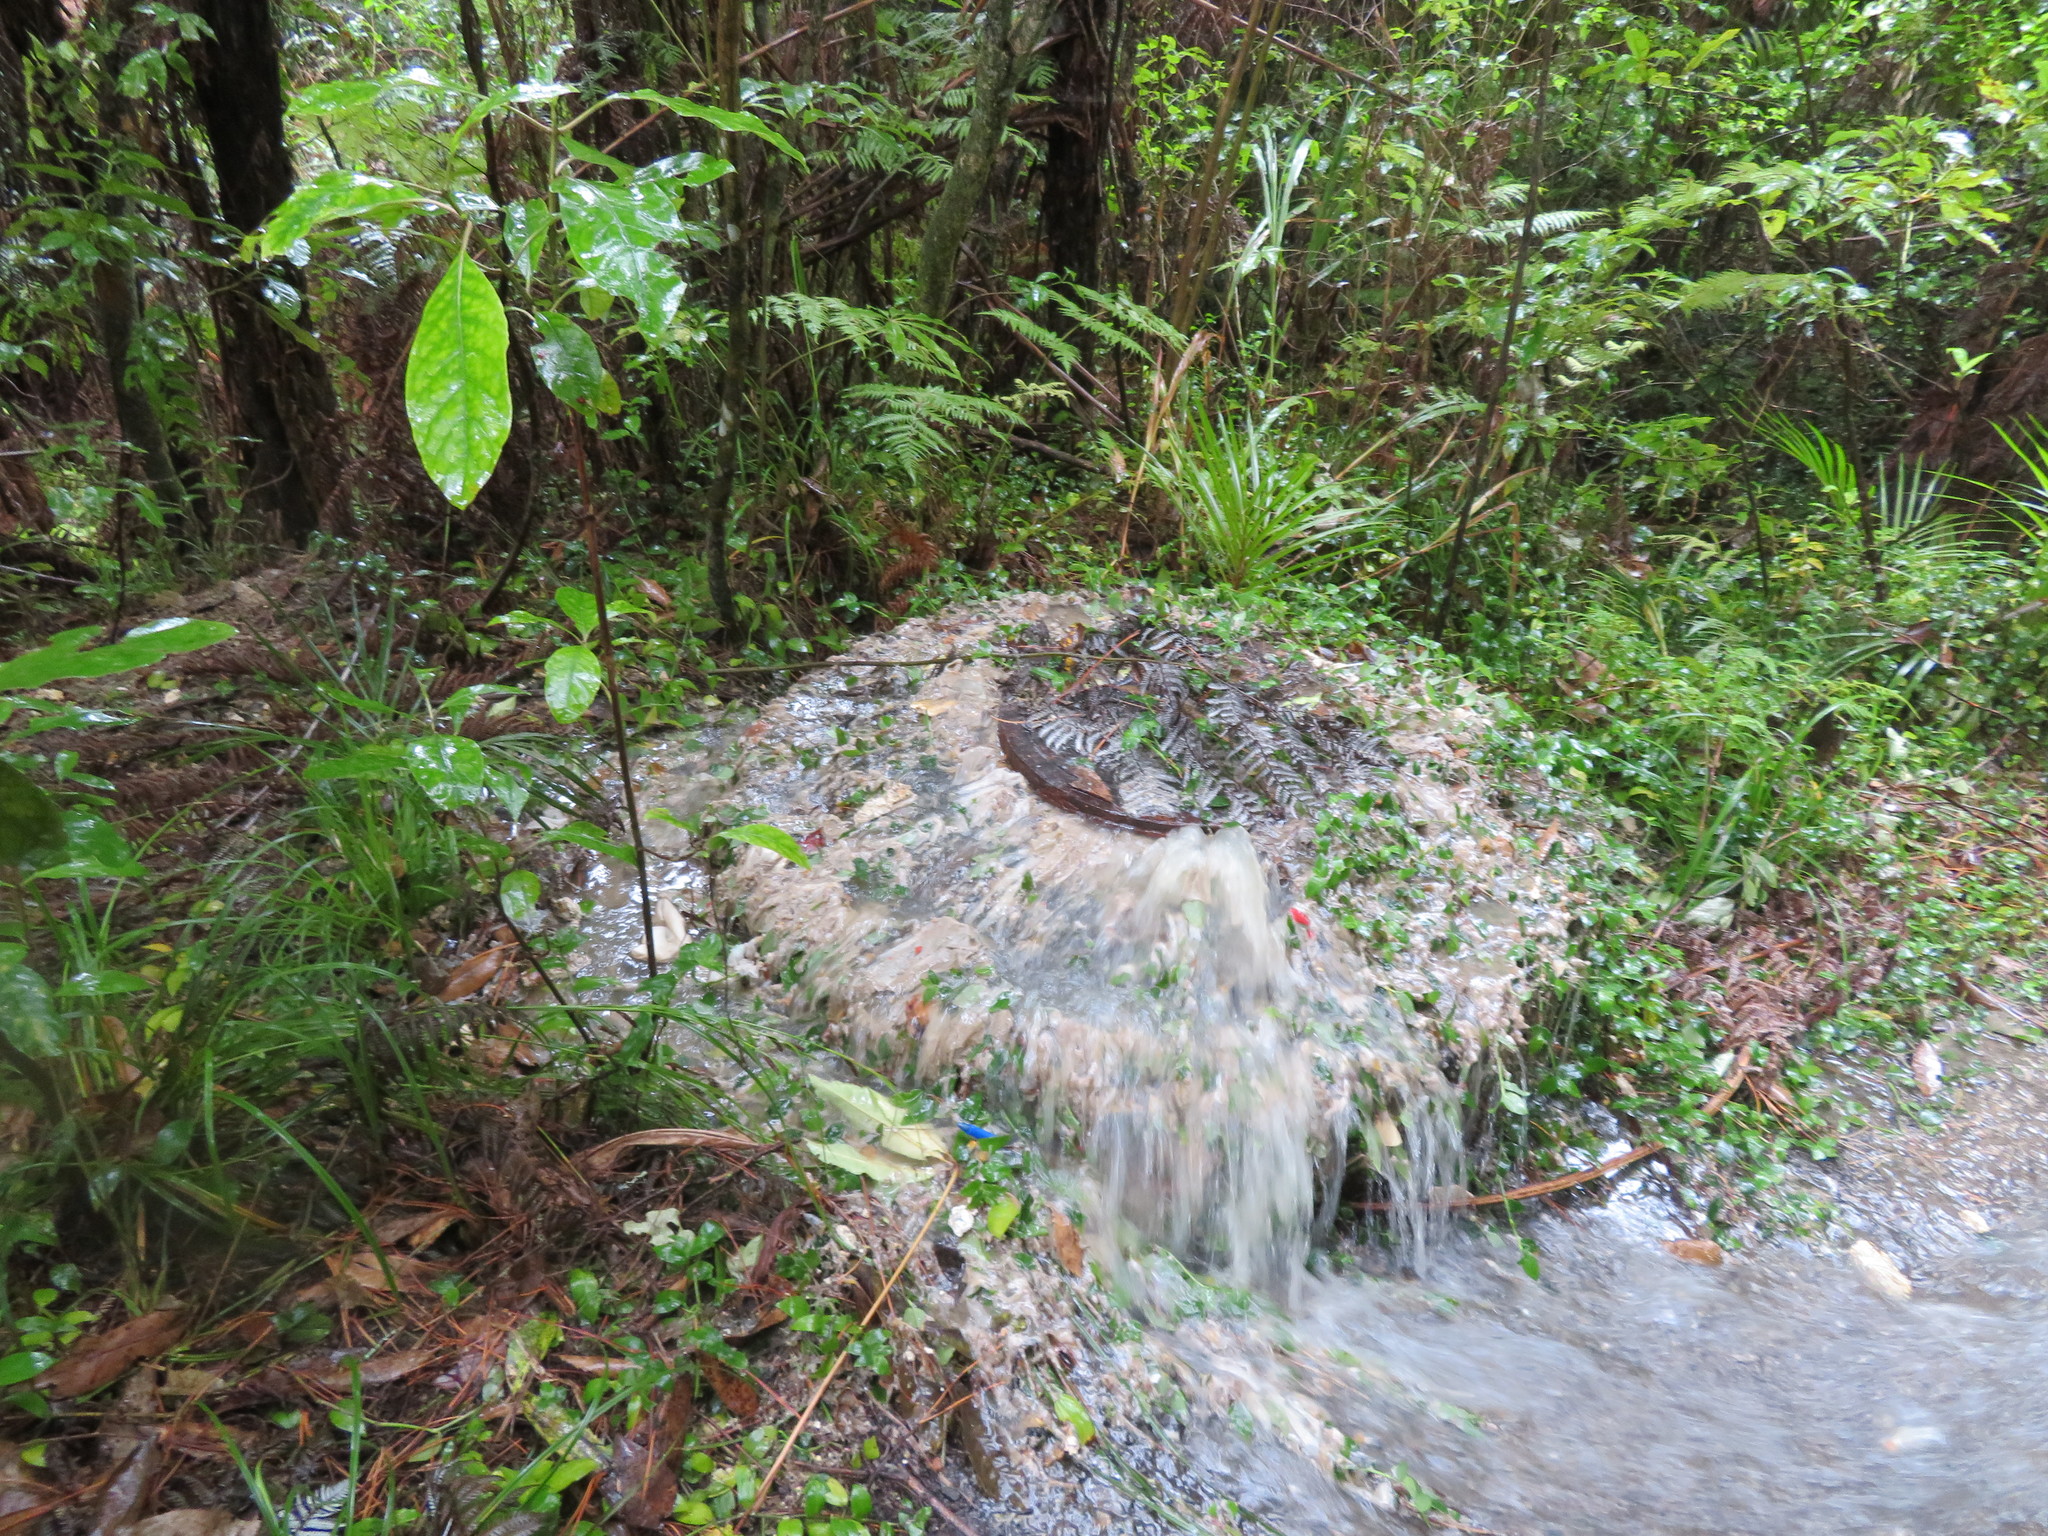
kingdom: Plantae
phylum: Tracheophyta
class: Magnoliopsida
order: Gentianales
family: Rubiaceae
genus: Coprosma
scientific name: Coprosma autumnalis
